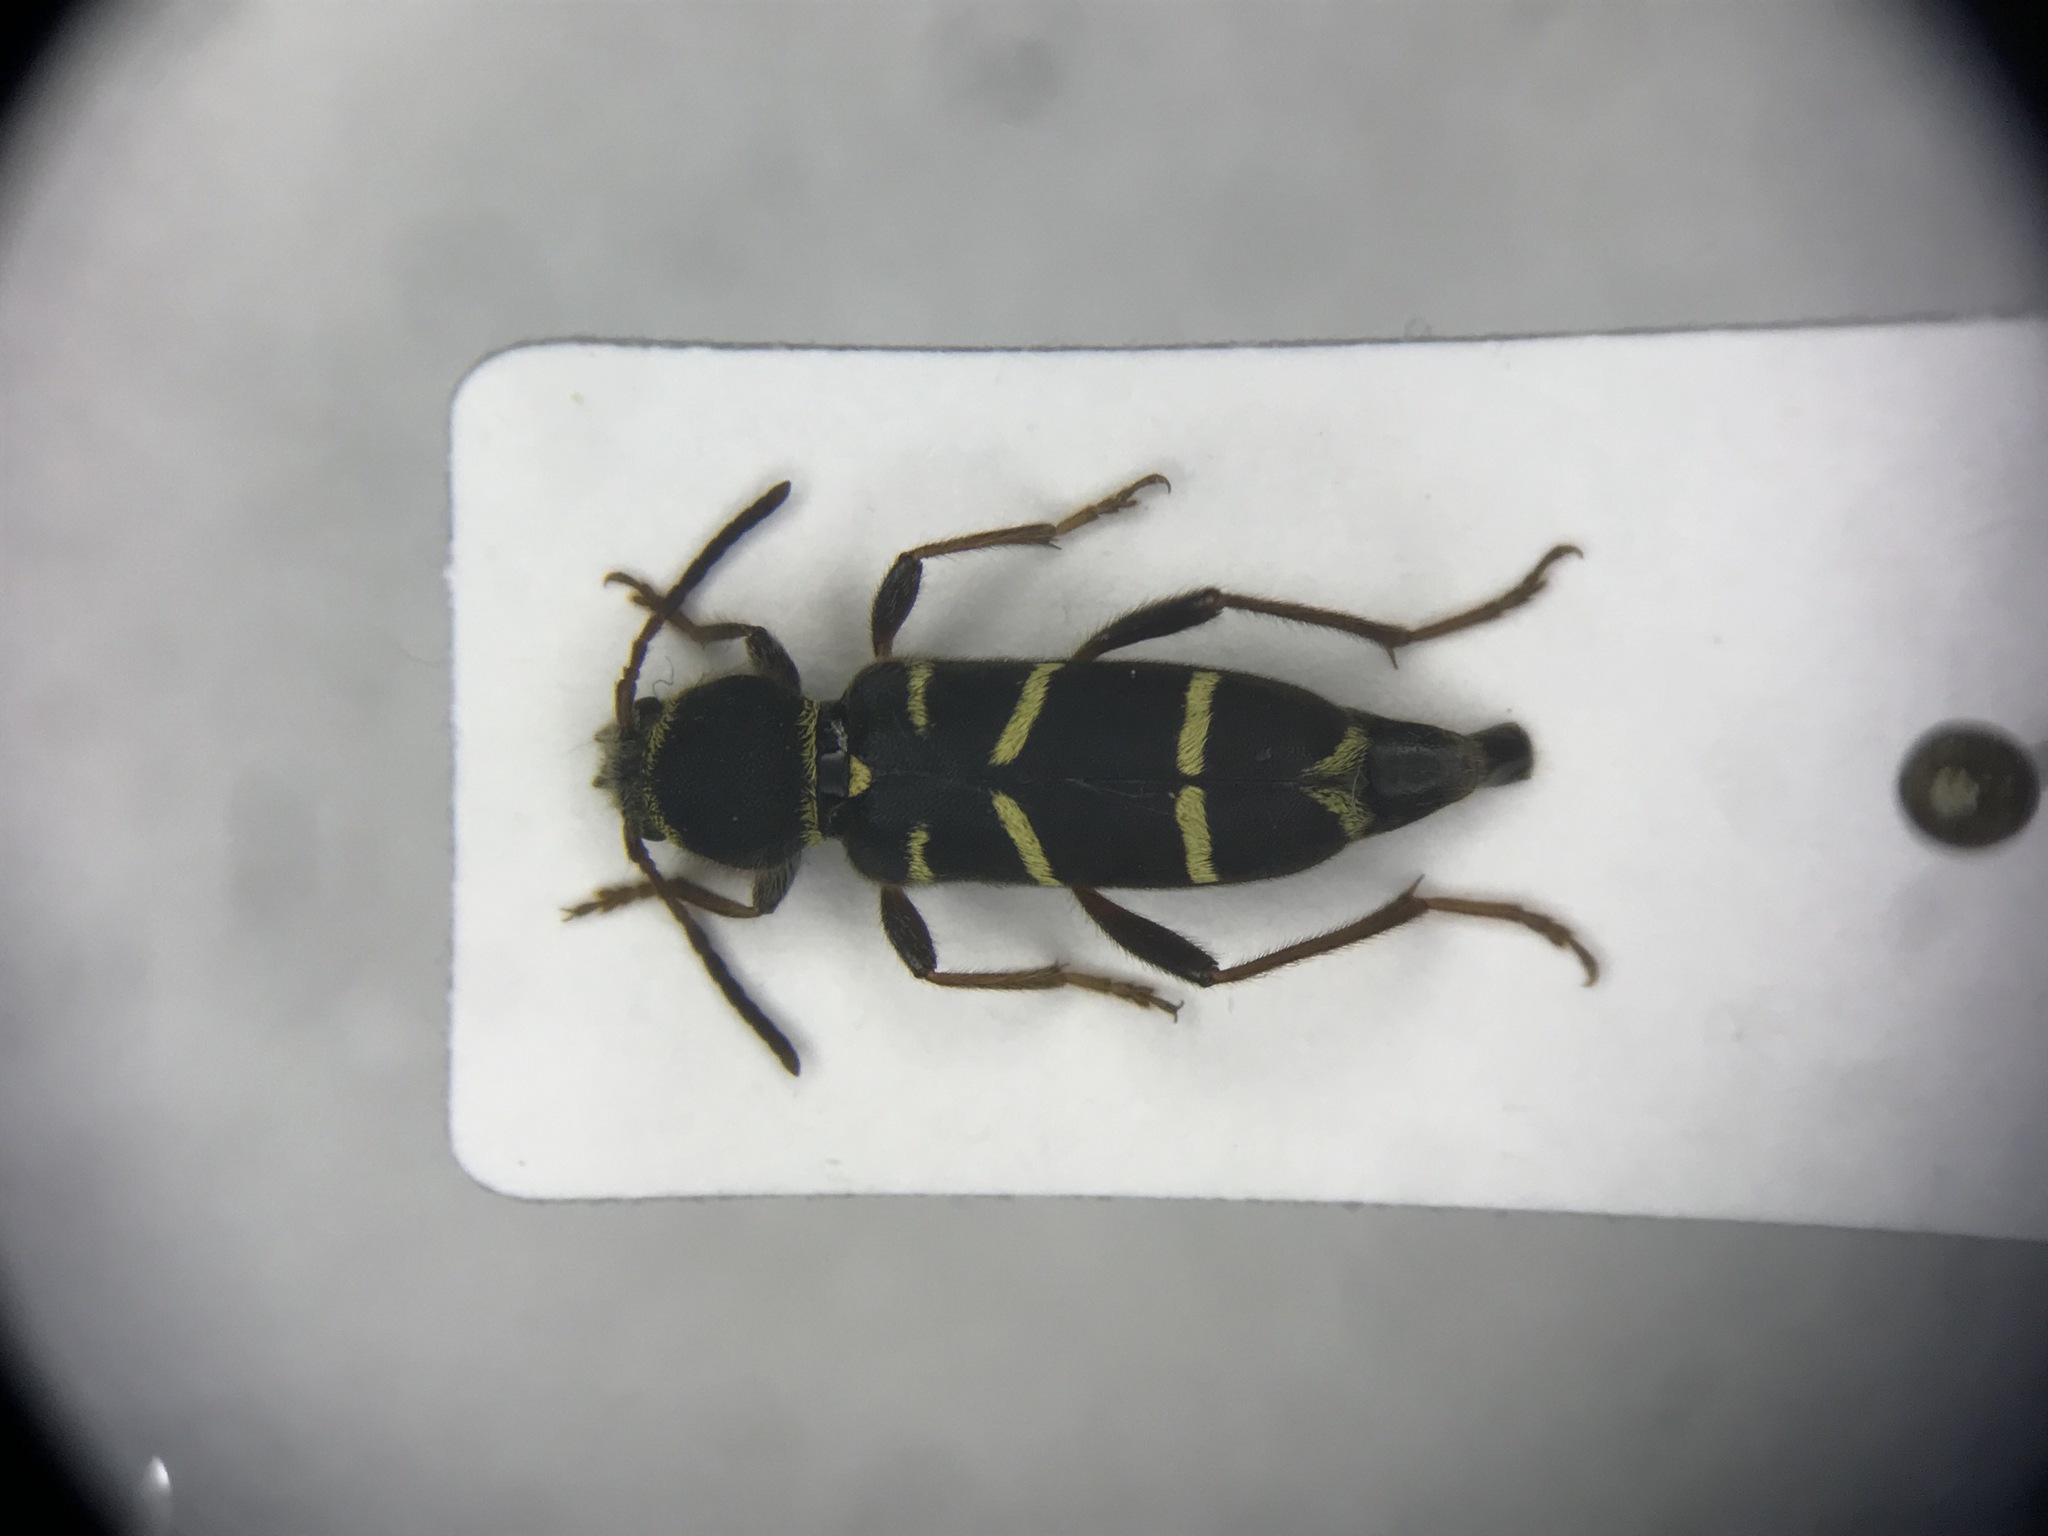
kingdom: Animalia
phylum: Arthropoda
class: Insecta
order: Coleoptera
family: Cerambycidae
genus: Clytus
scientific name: Clytus marginicollis
